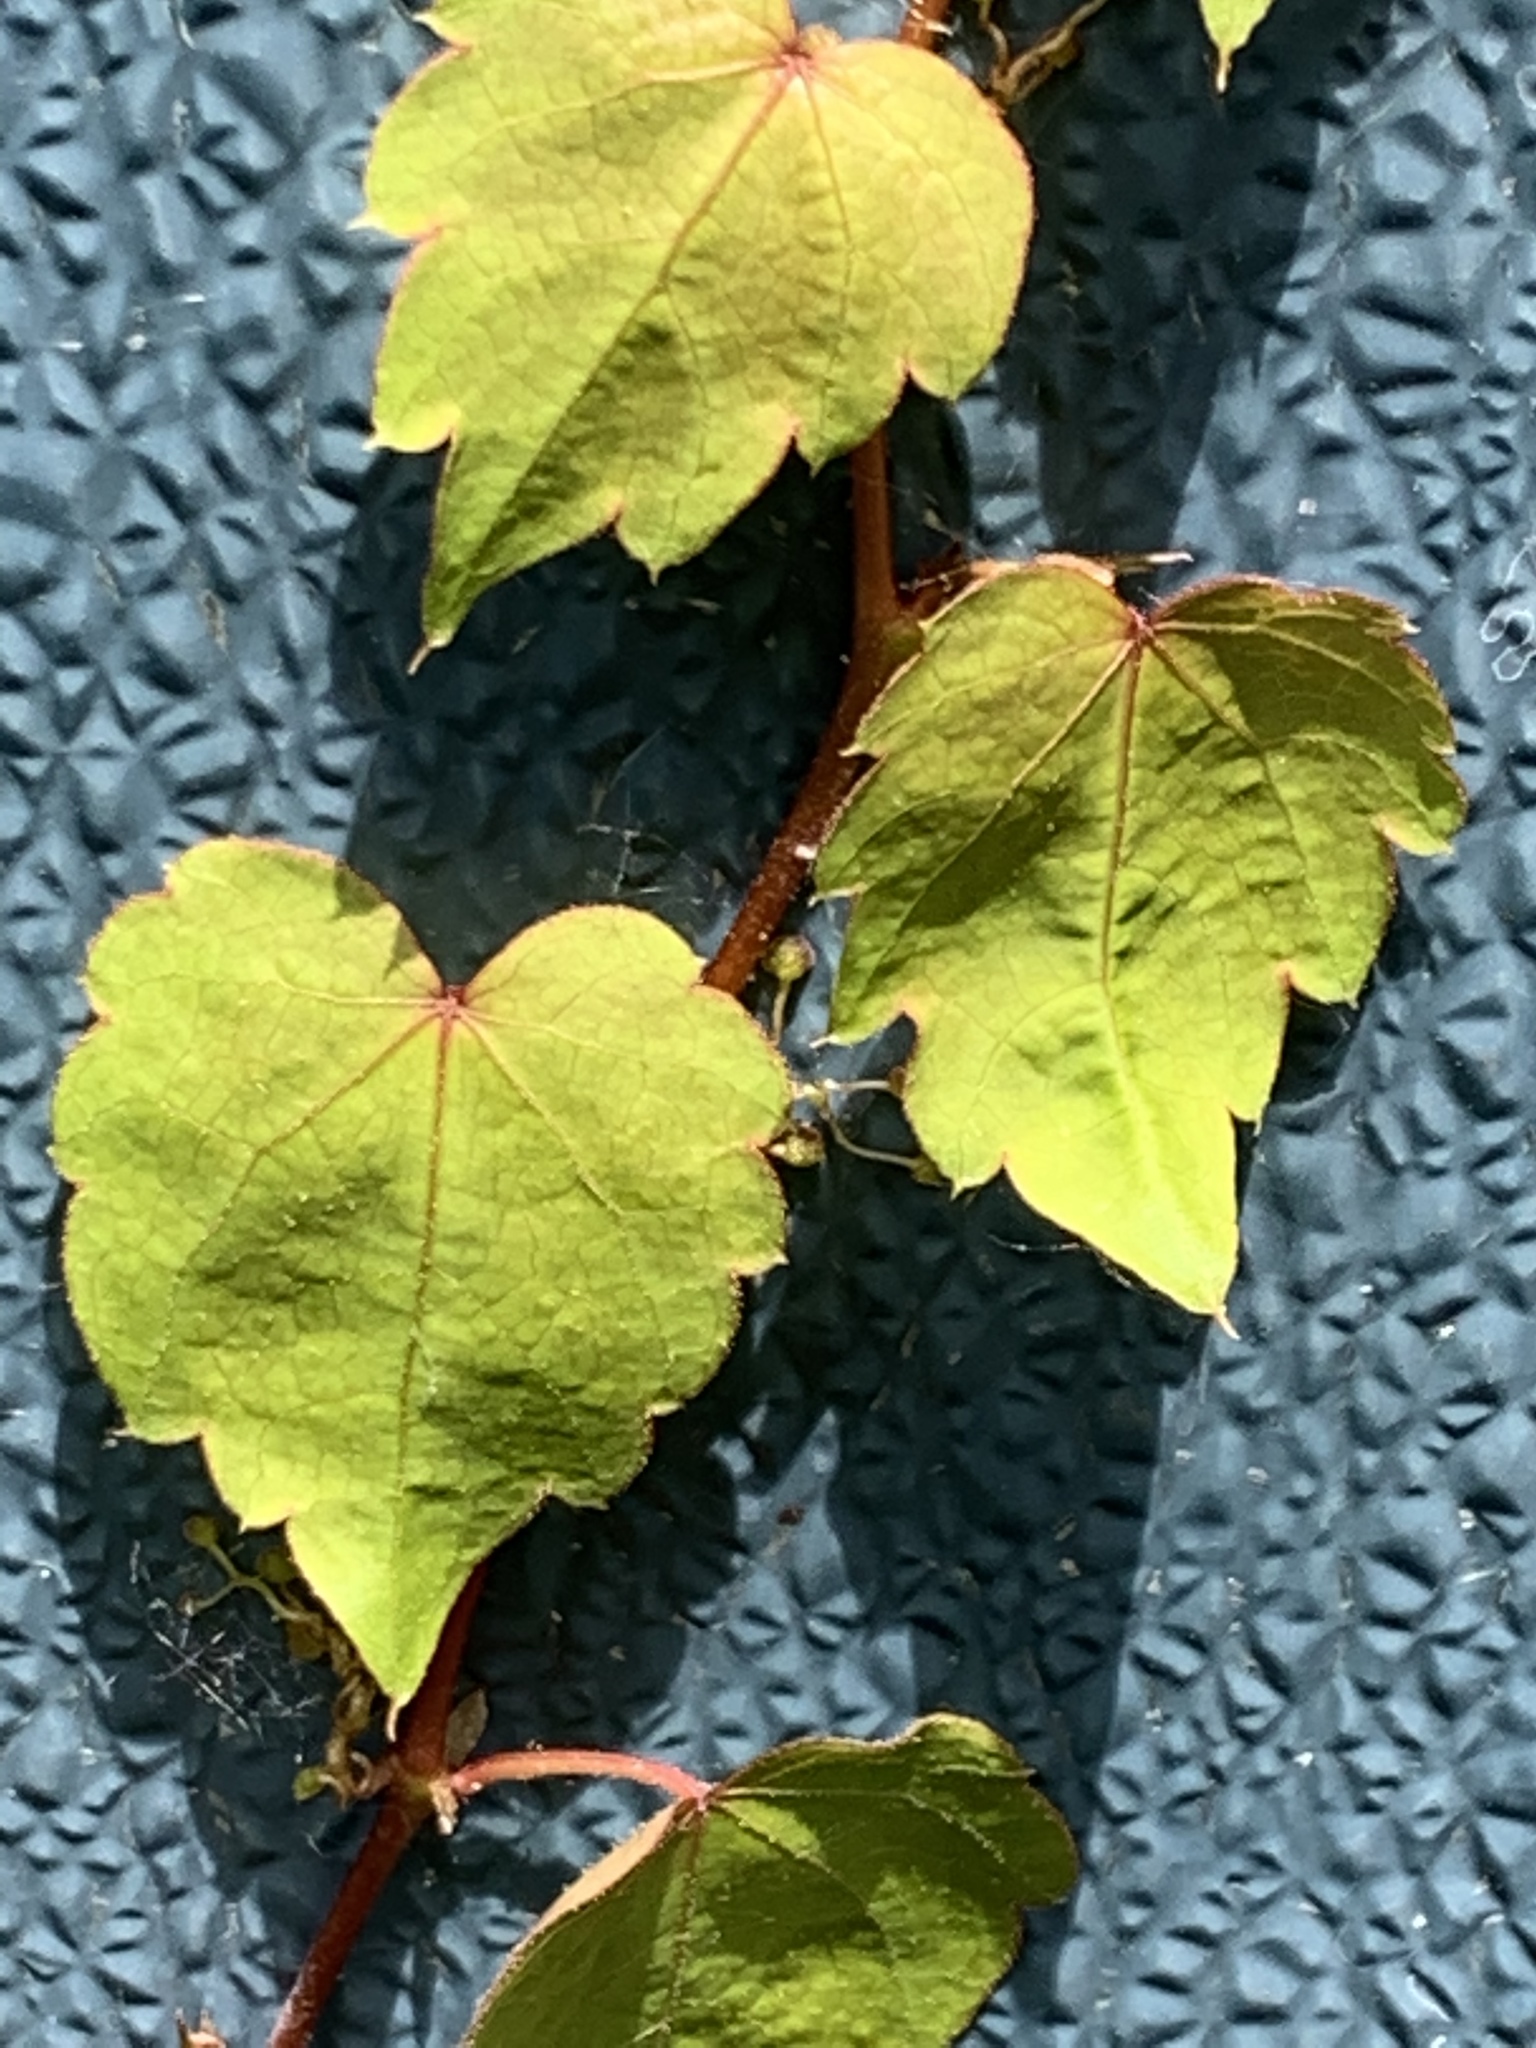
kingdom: Plantae
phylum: Tracheophyta
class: Magnoliopsida
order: Vitales
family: Vitaceae
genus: Parthenocissus
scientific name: Parthenocissus tricuspidata
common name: Boston ivy
